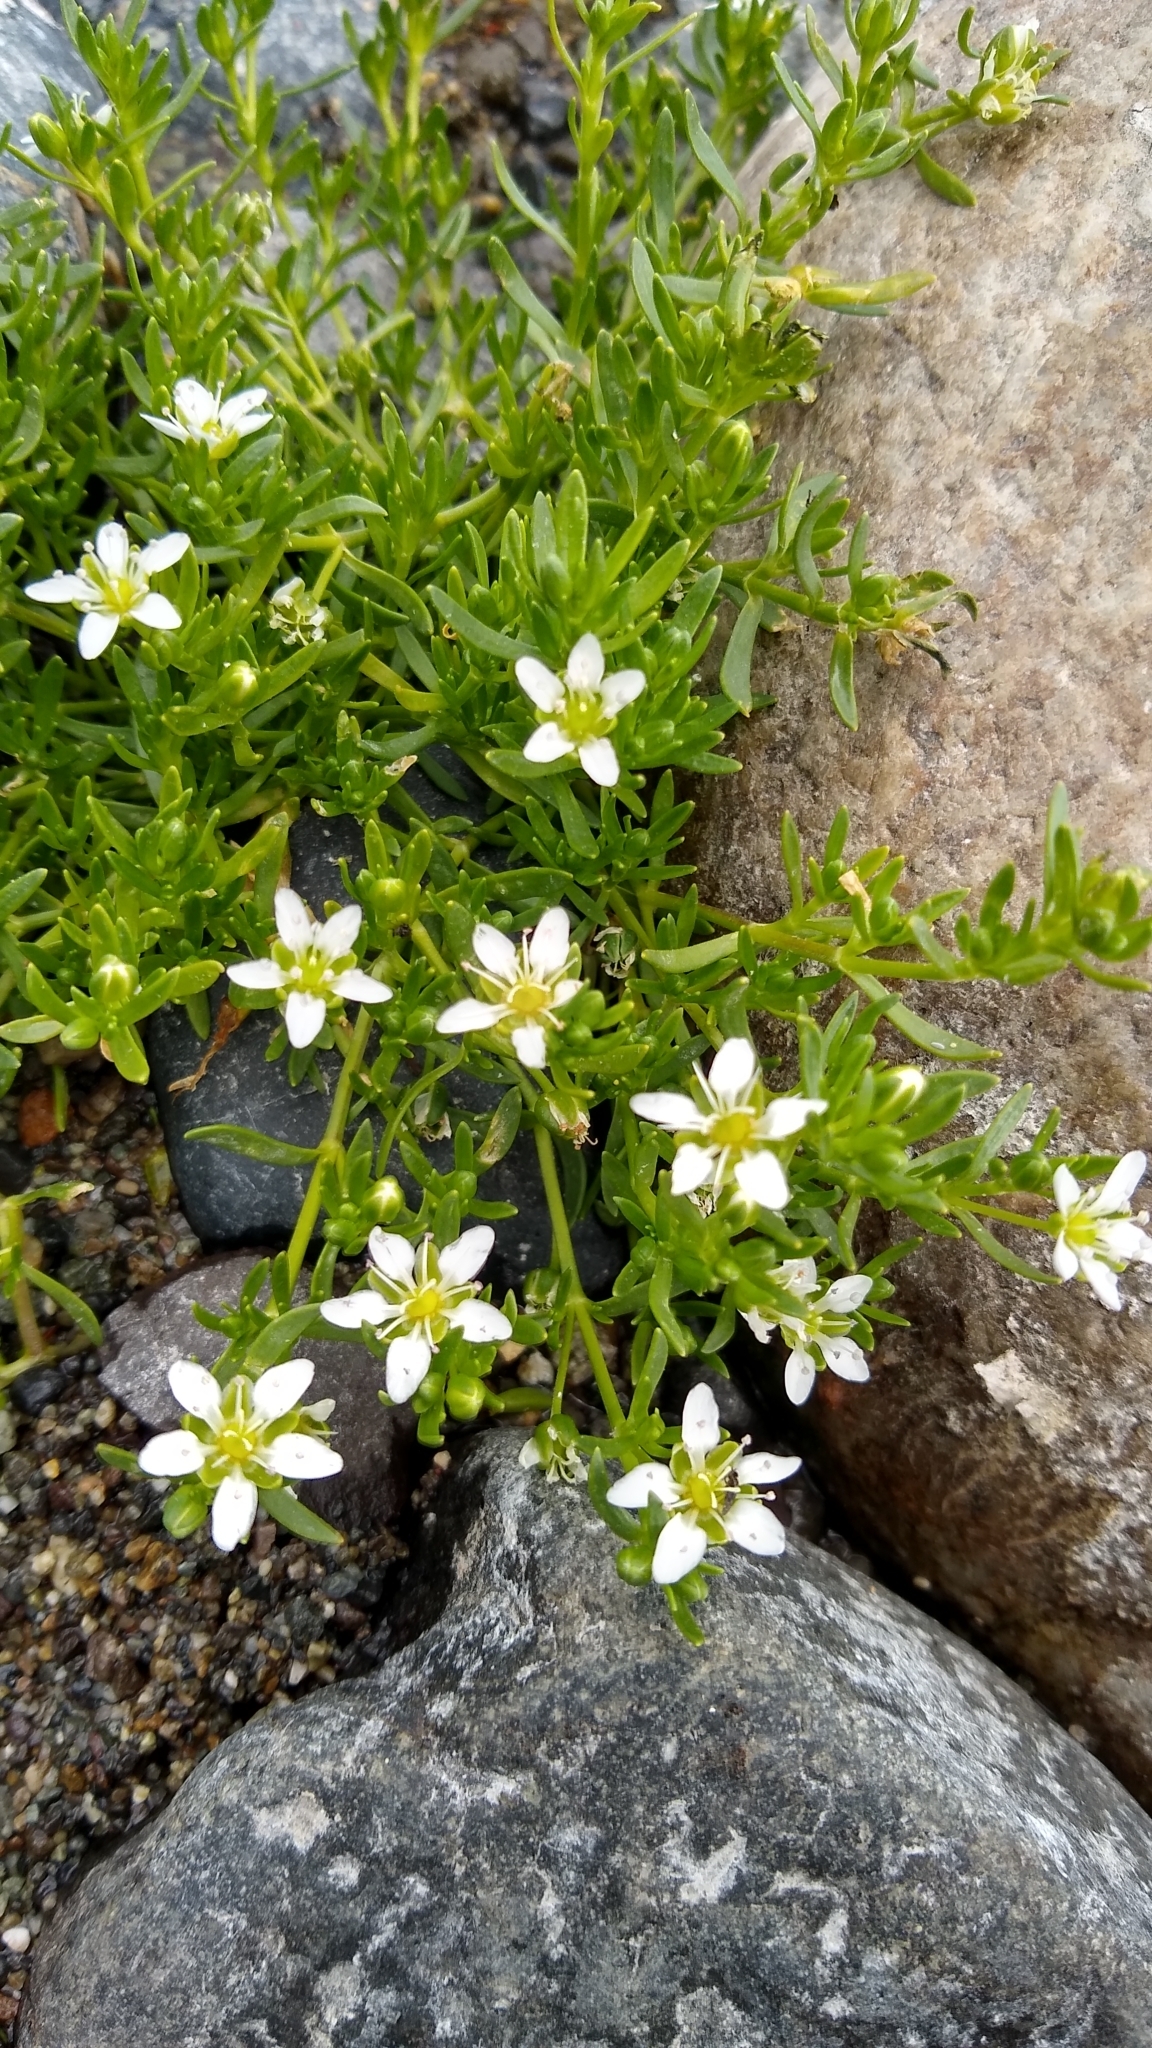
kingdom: Plantae
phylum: Tracheophyta
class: Magnoliopsida
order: Caryophyllales
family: Caryophyllaceae
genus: Arenaria
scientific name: Arenaria serpens
